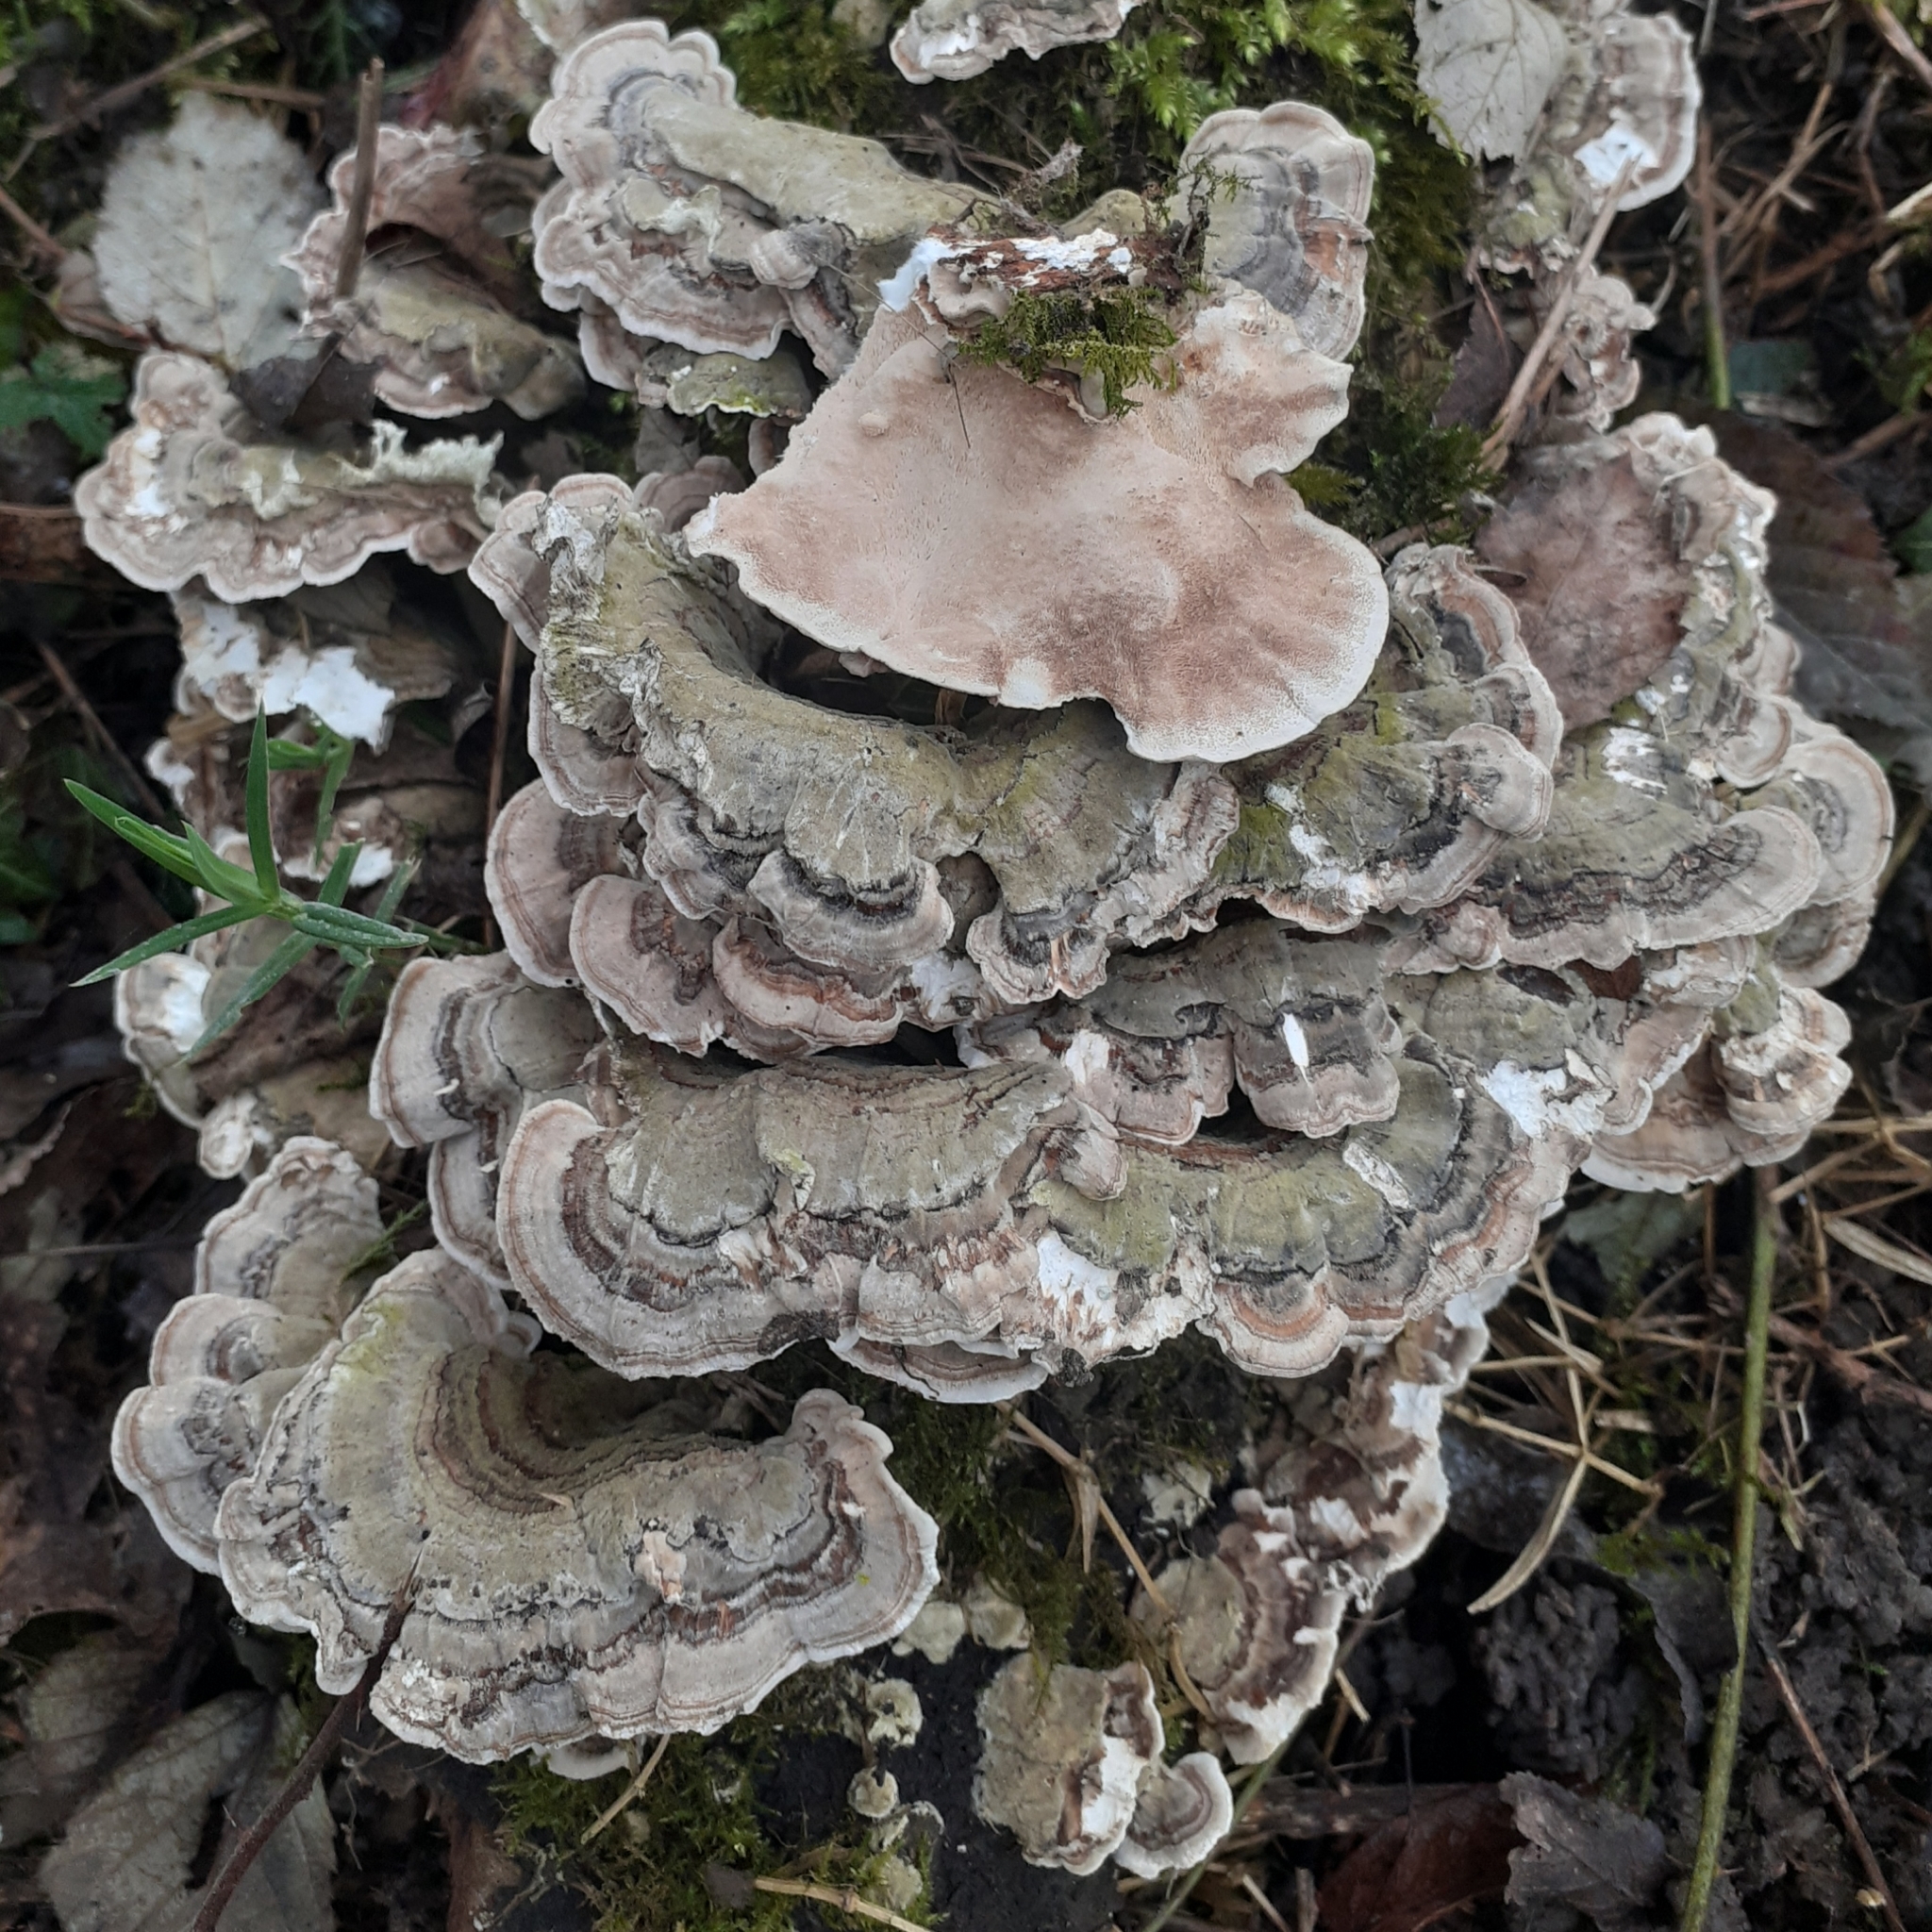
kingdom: Fungi
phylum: Basidiomycota
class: Agaricomycetes
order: Polyporales
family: Polyporaceae
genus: Trametes
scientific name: Trametes versicolor
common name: Turkeytail
